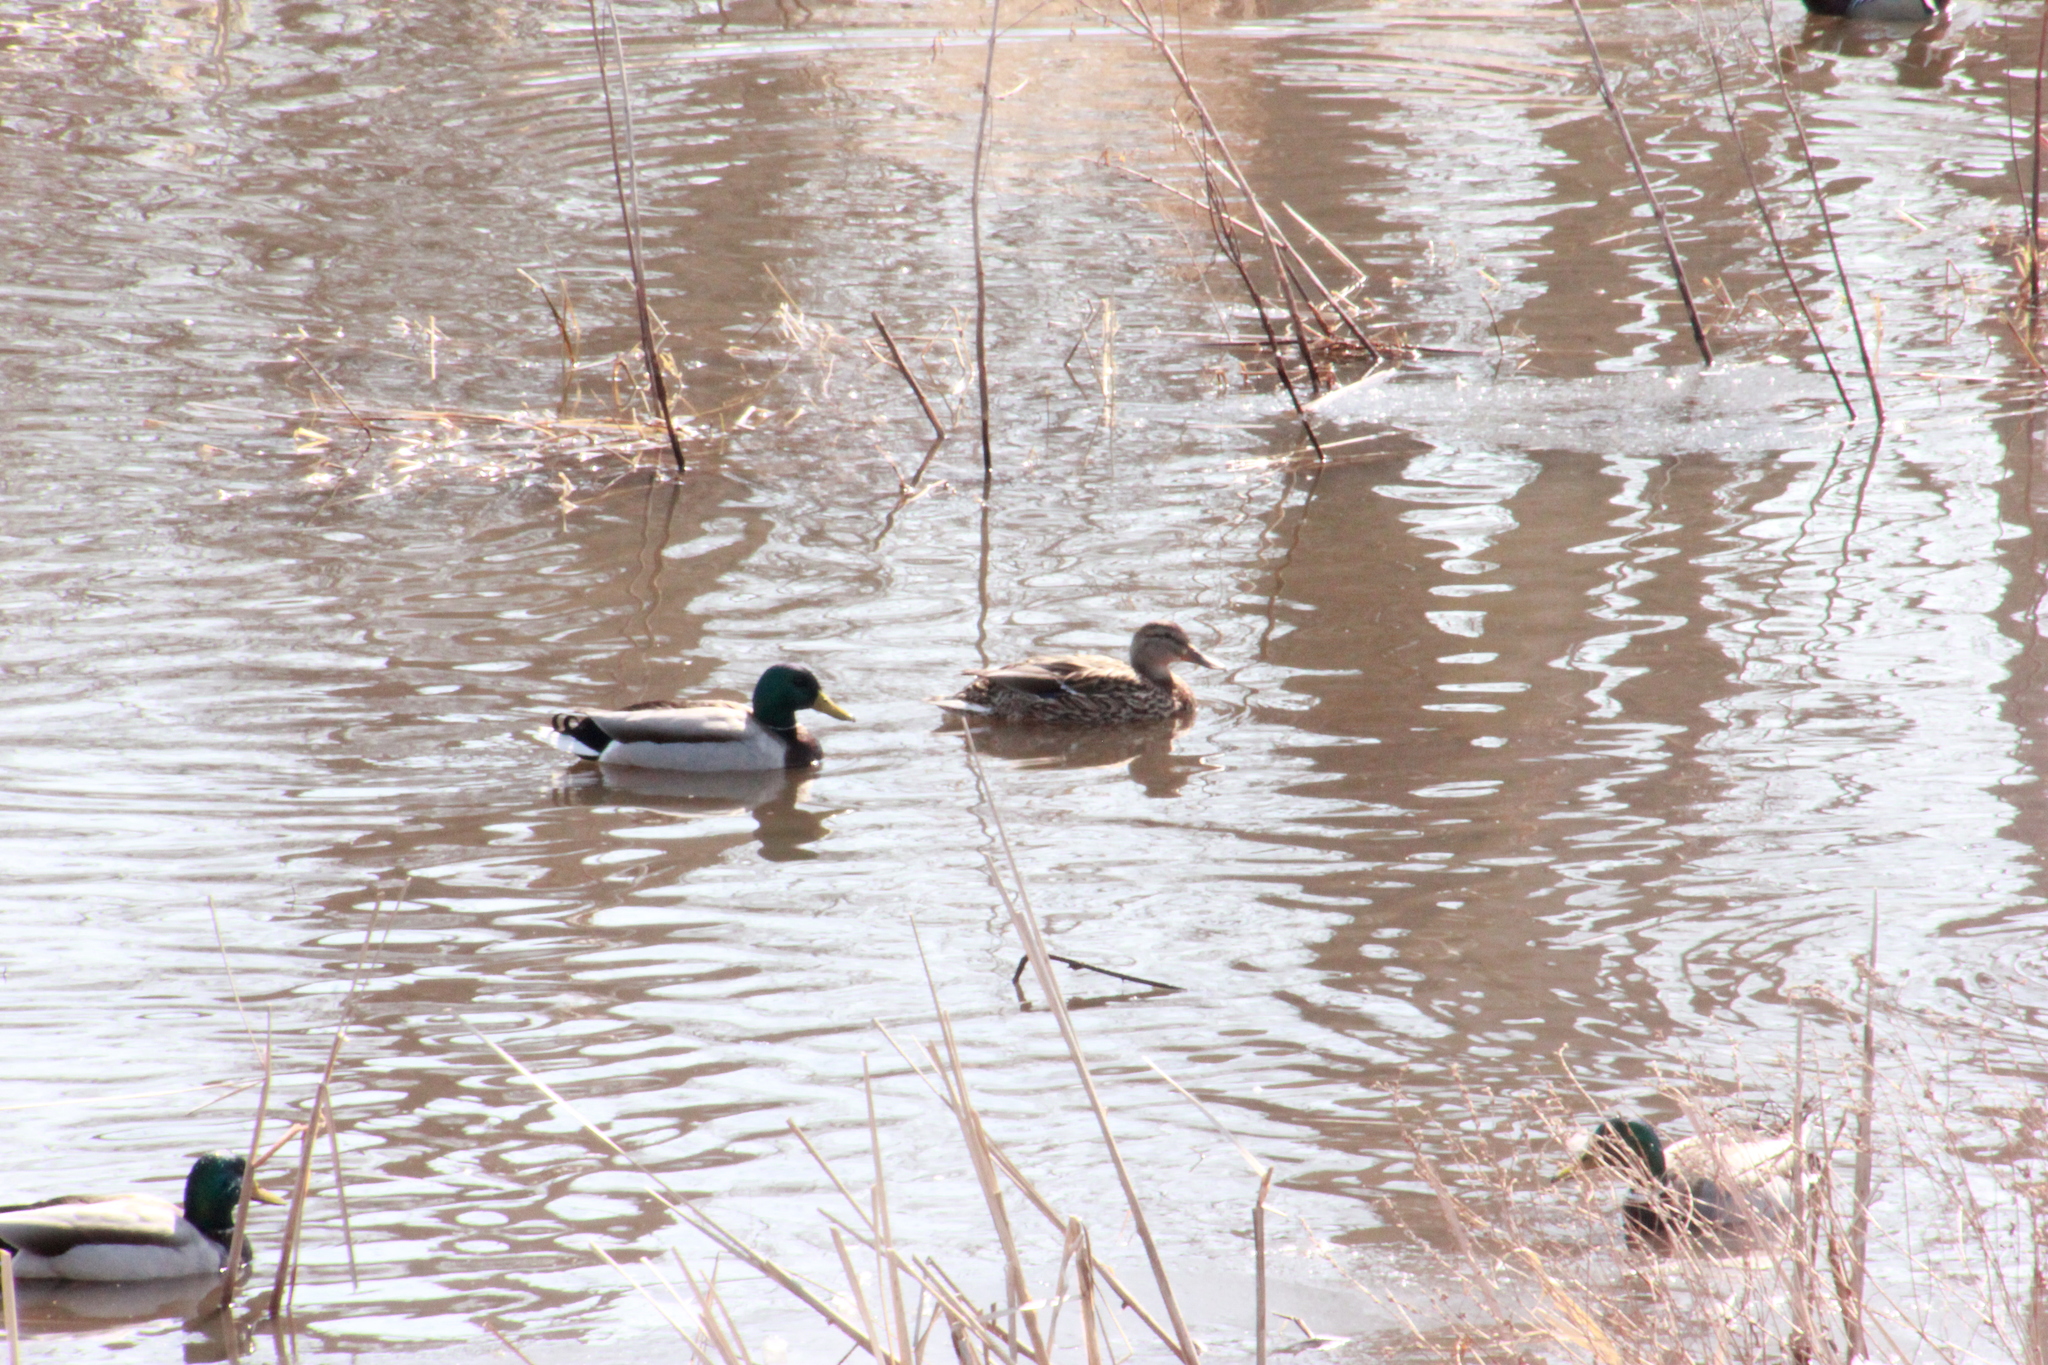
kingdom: Animalia
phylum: Chordata
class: Aves
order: Anseriformes
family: Anatidae
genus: Anas
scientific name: Anas platyrhynchos
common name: Mallard
